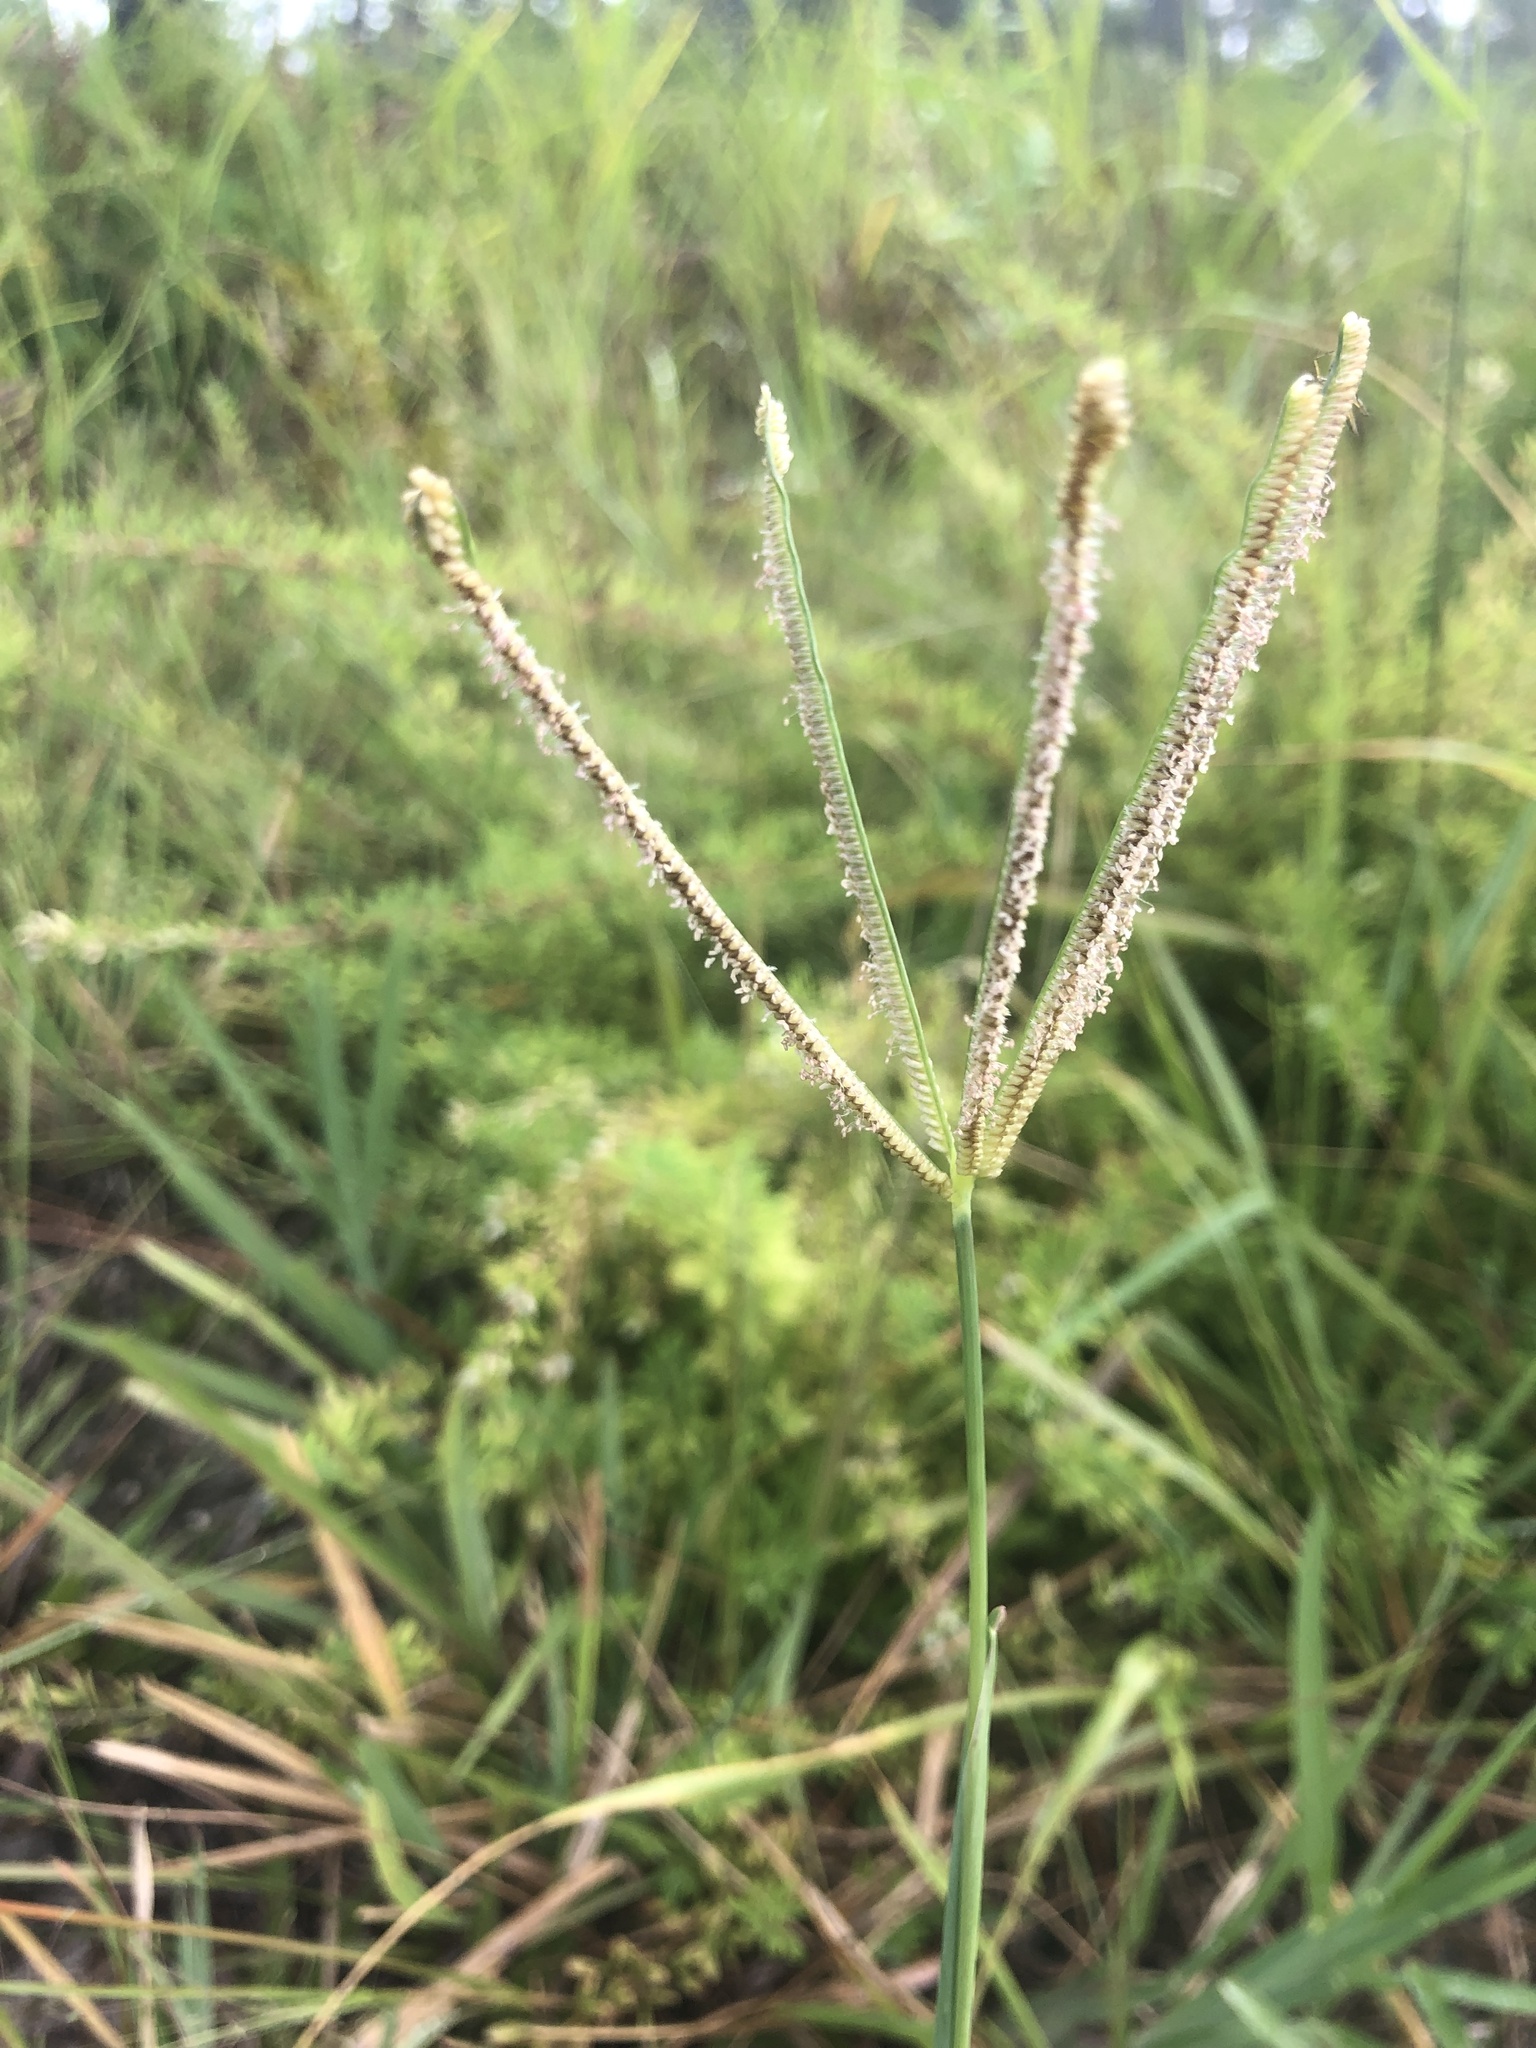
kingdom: Plantae
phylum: Tracheophyta
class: Liliopsida
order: Poales
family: Poaceae
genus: Eustachys
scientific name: Eustachys petraea
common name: Pinewoods fingergrass
